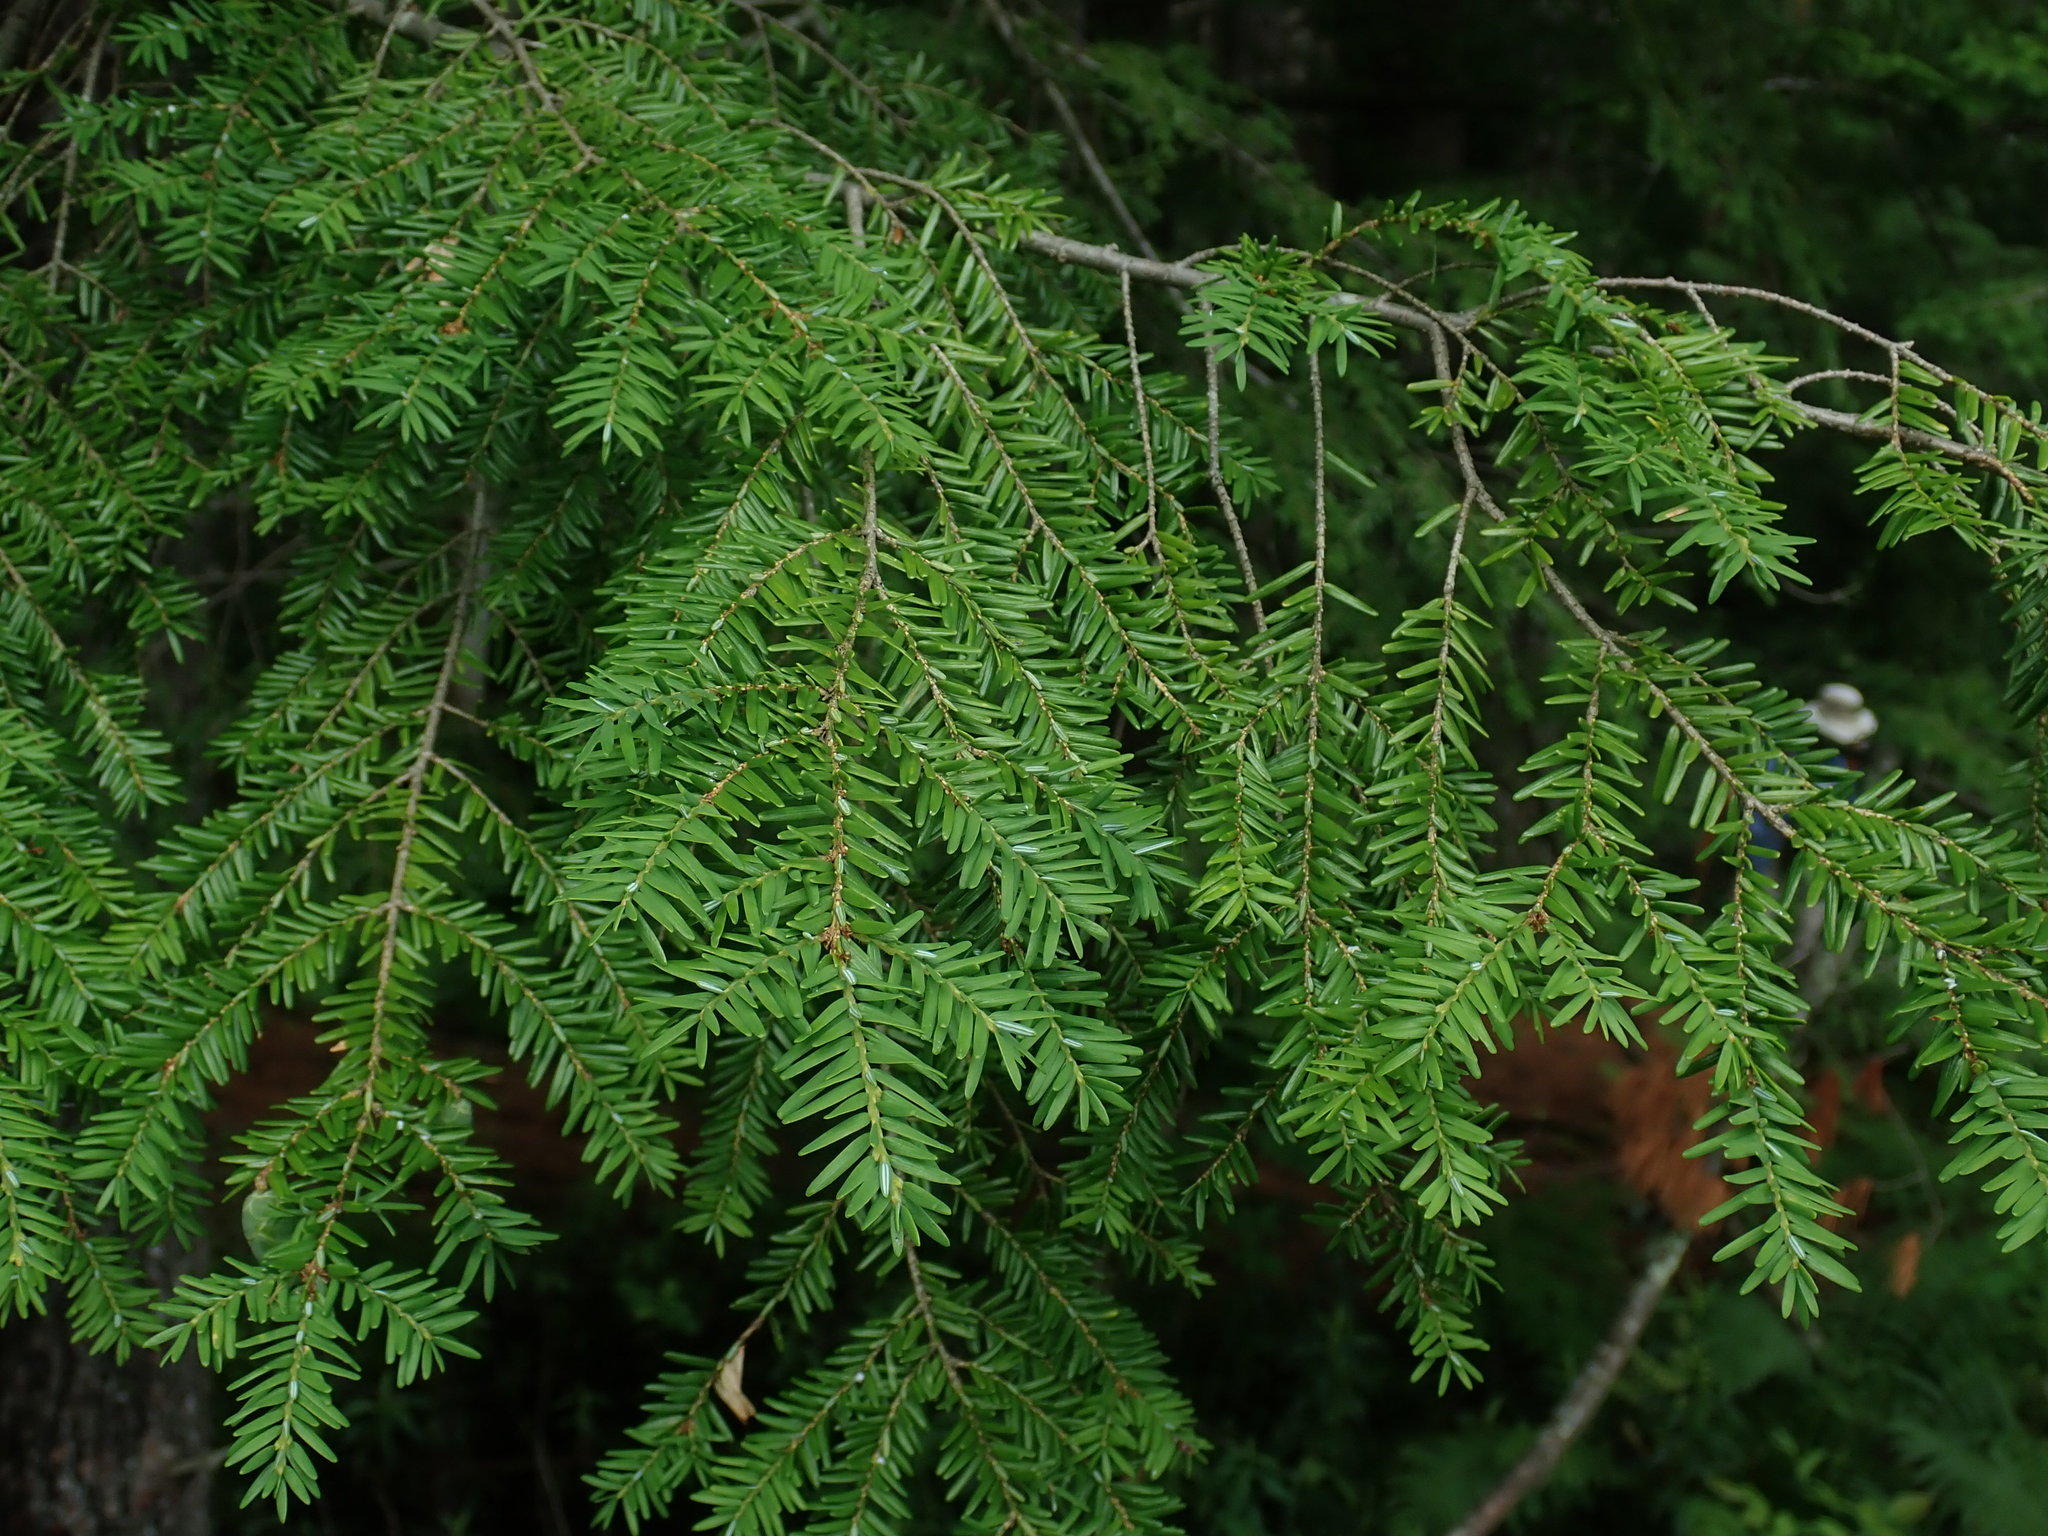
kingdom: Plantae
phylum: Tracheophyta
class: Pinopsida
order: Pinales
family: Pinaceae
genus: Tsuga
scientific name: Tsuga canadensis
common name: Eastern hemlock
